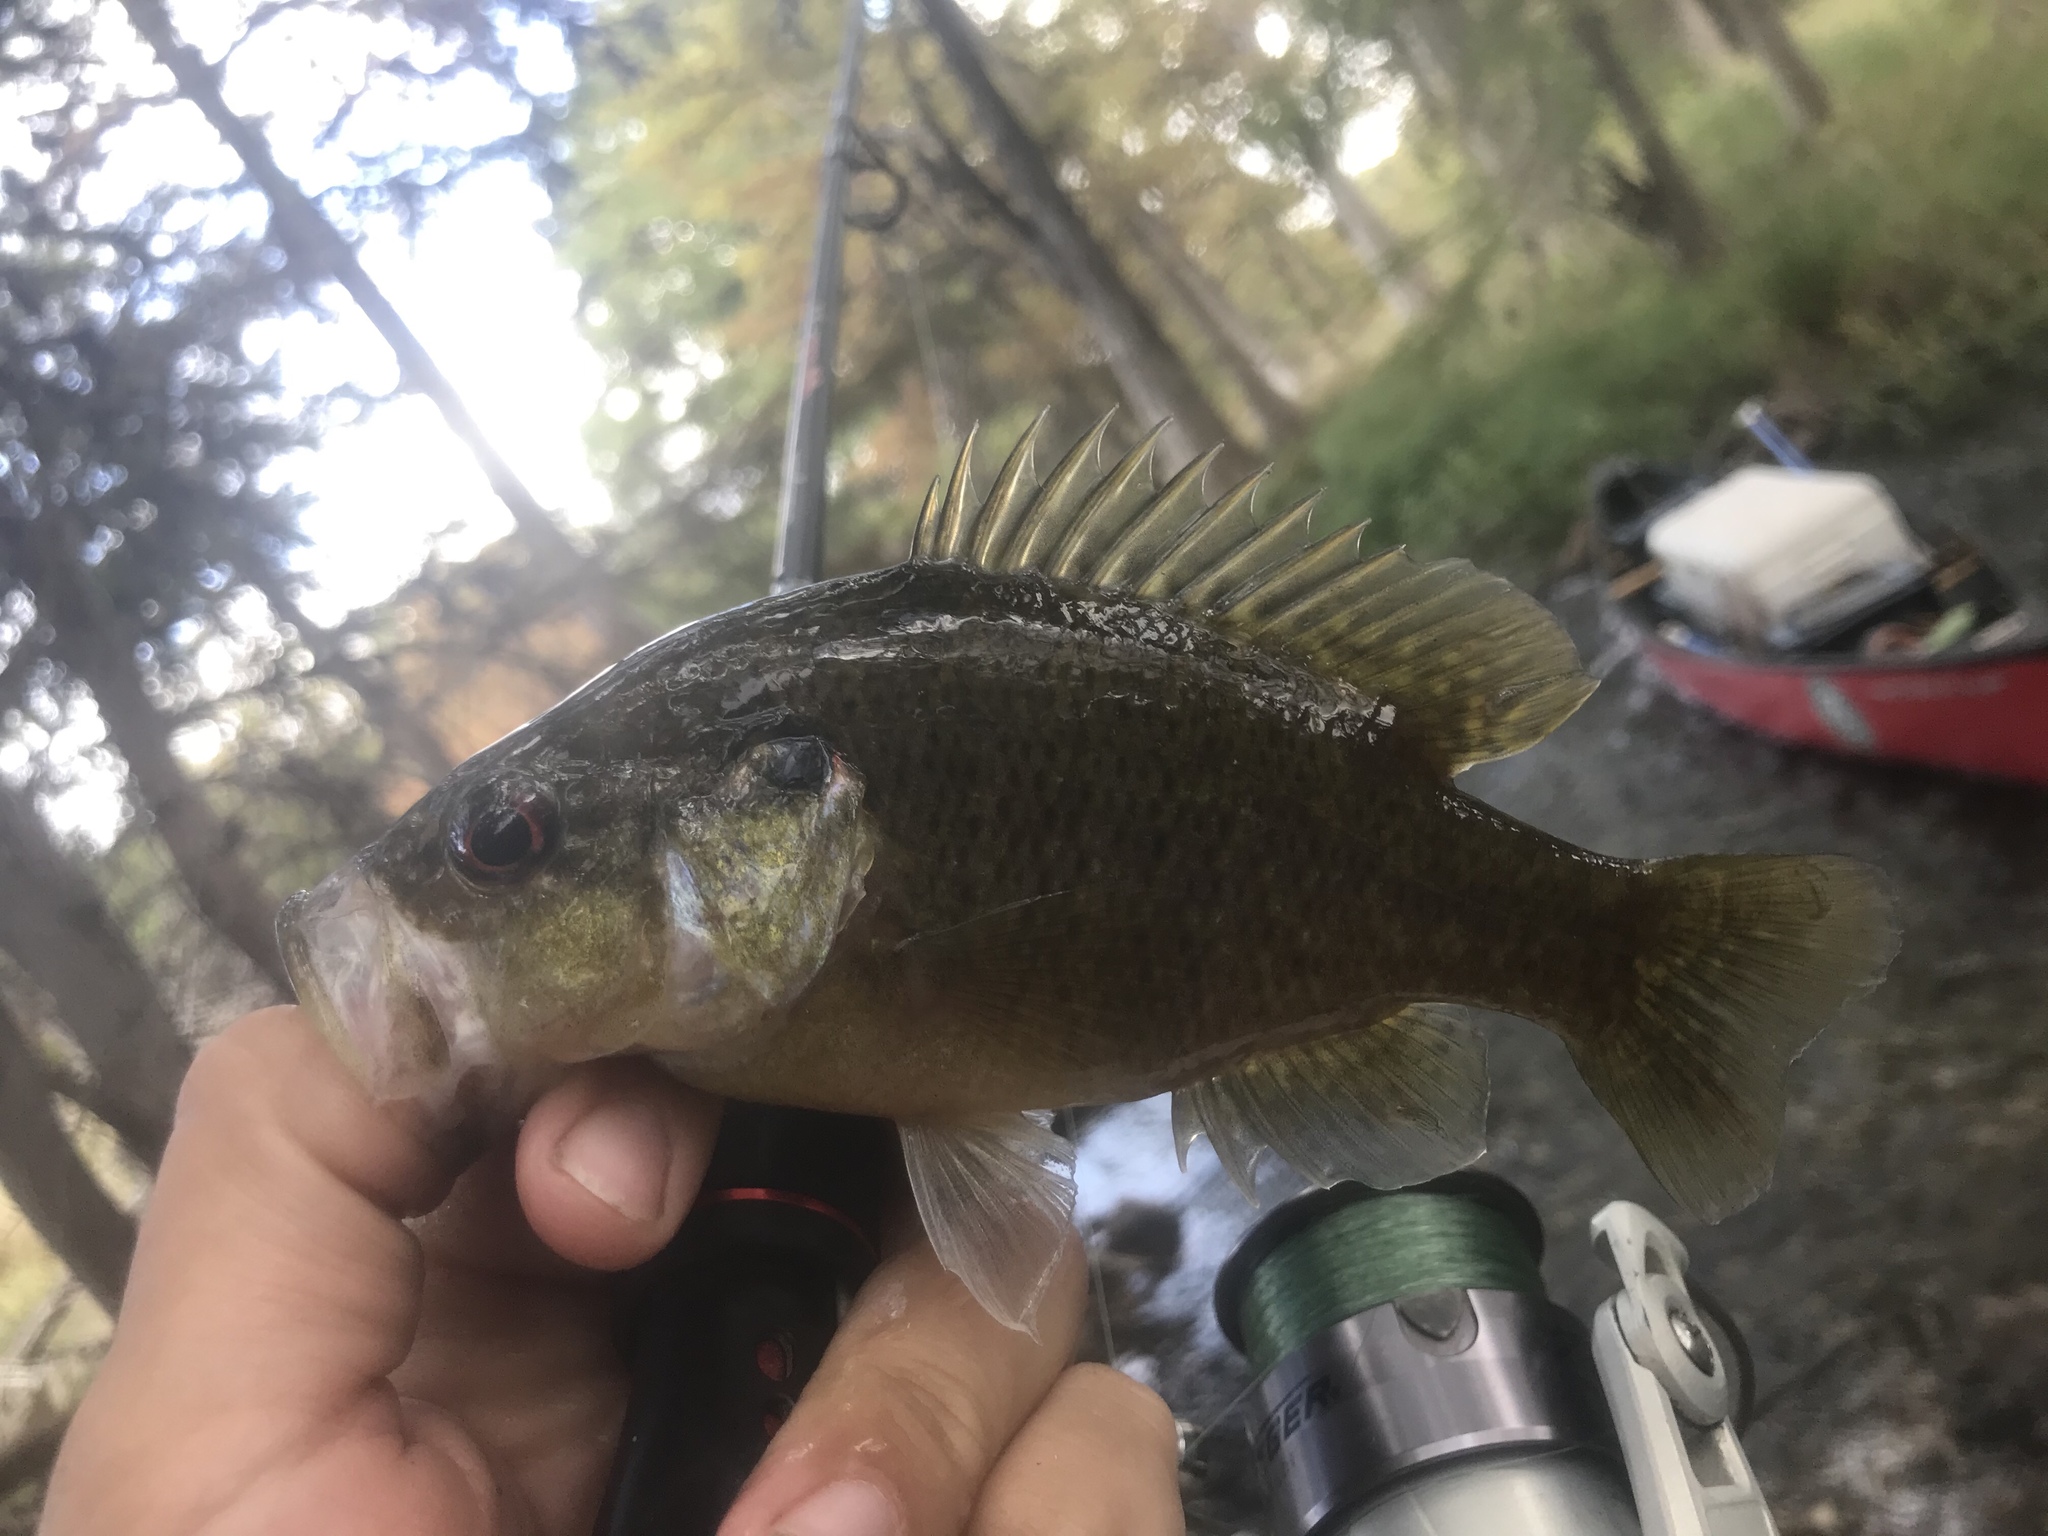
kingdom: Animalia
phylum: Chordata
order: Perciformes
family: Centrarchidae
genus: Lepomis
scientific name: Lepomis gulosus
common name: Warmouth
